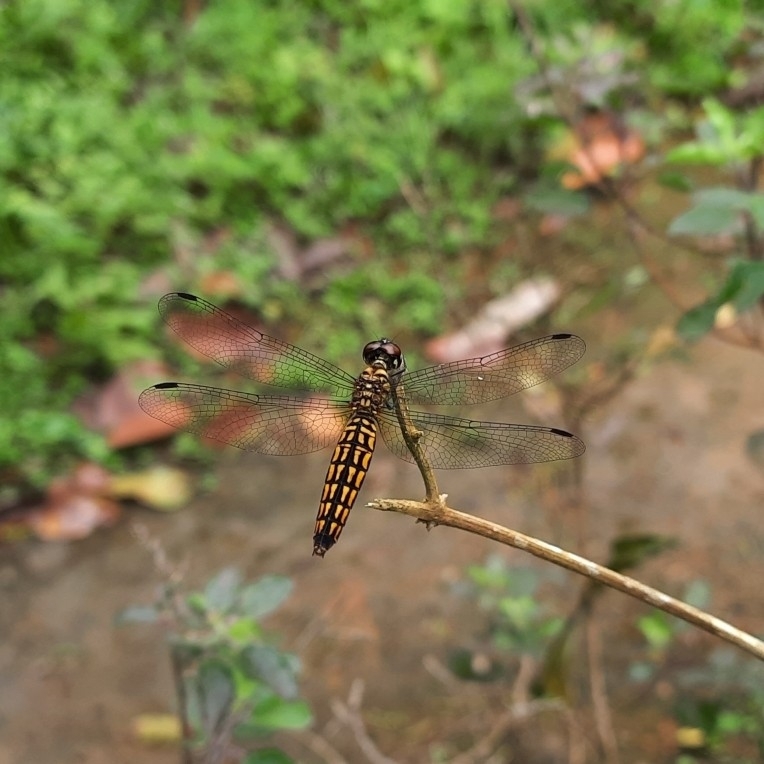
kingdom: Animalia
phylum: Arthropoda
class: Insecta
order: Odonata
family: Libellulidae
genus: Lyriothemis
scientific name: Lyriothemis acigastra
